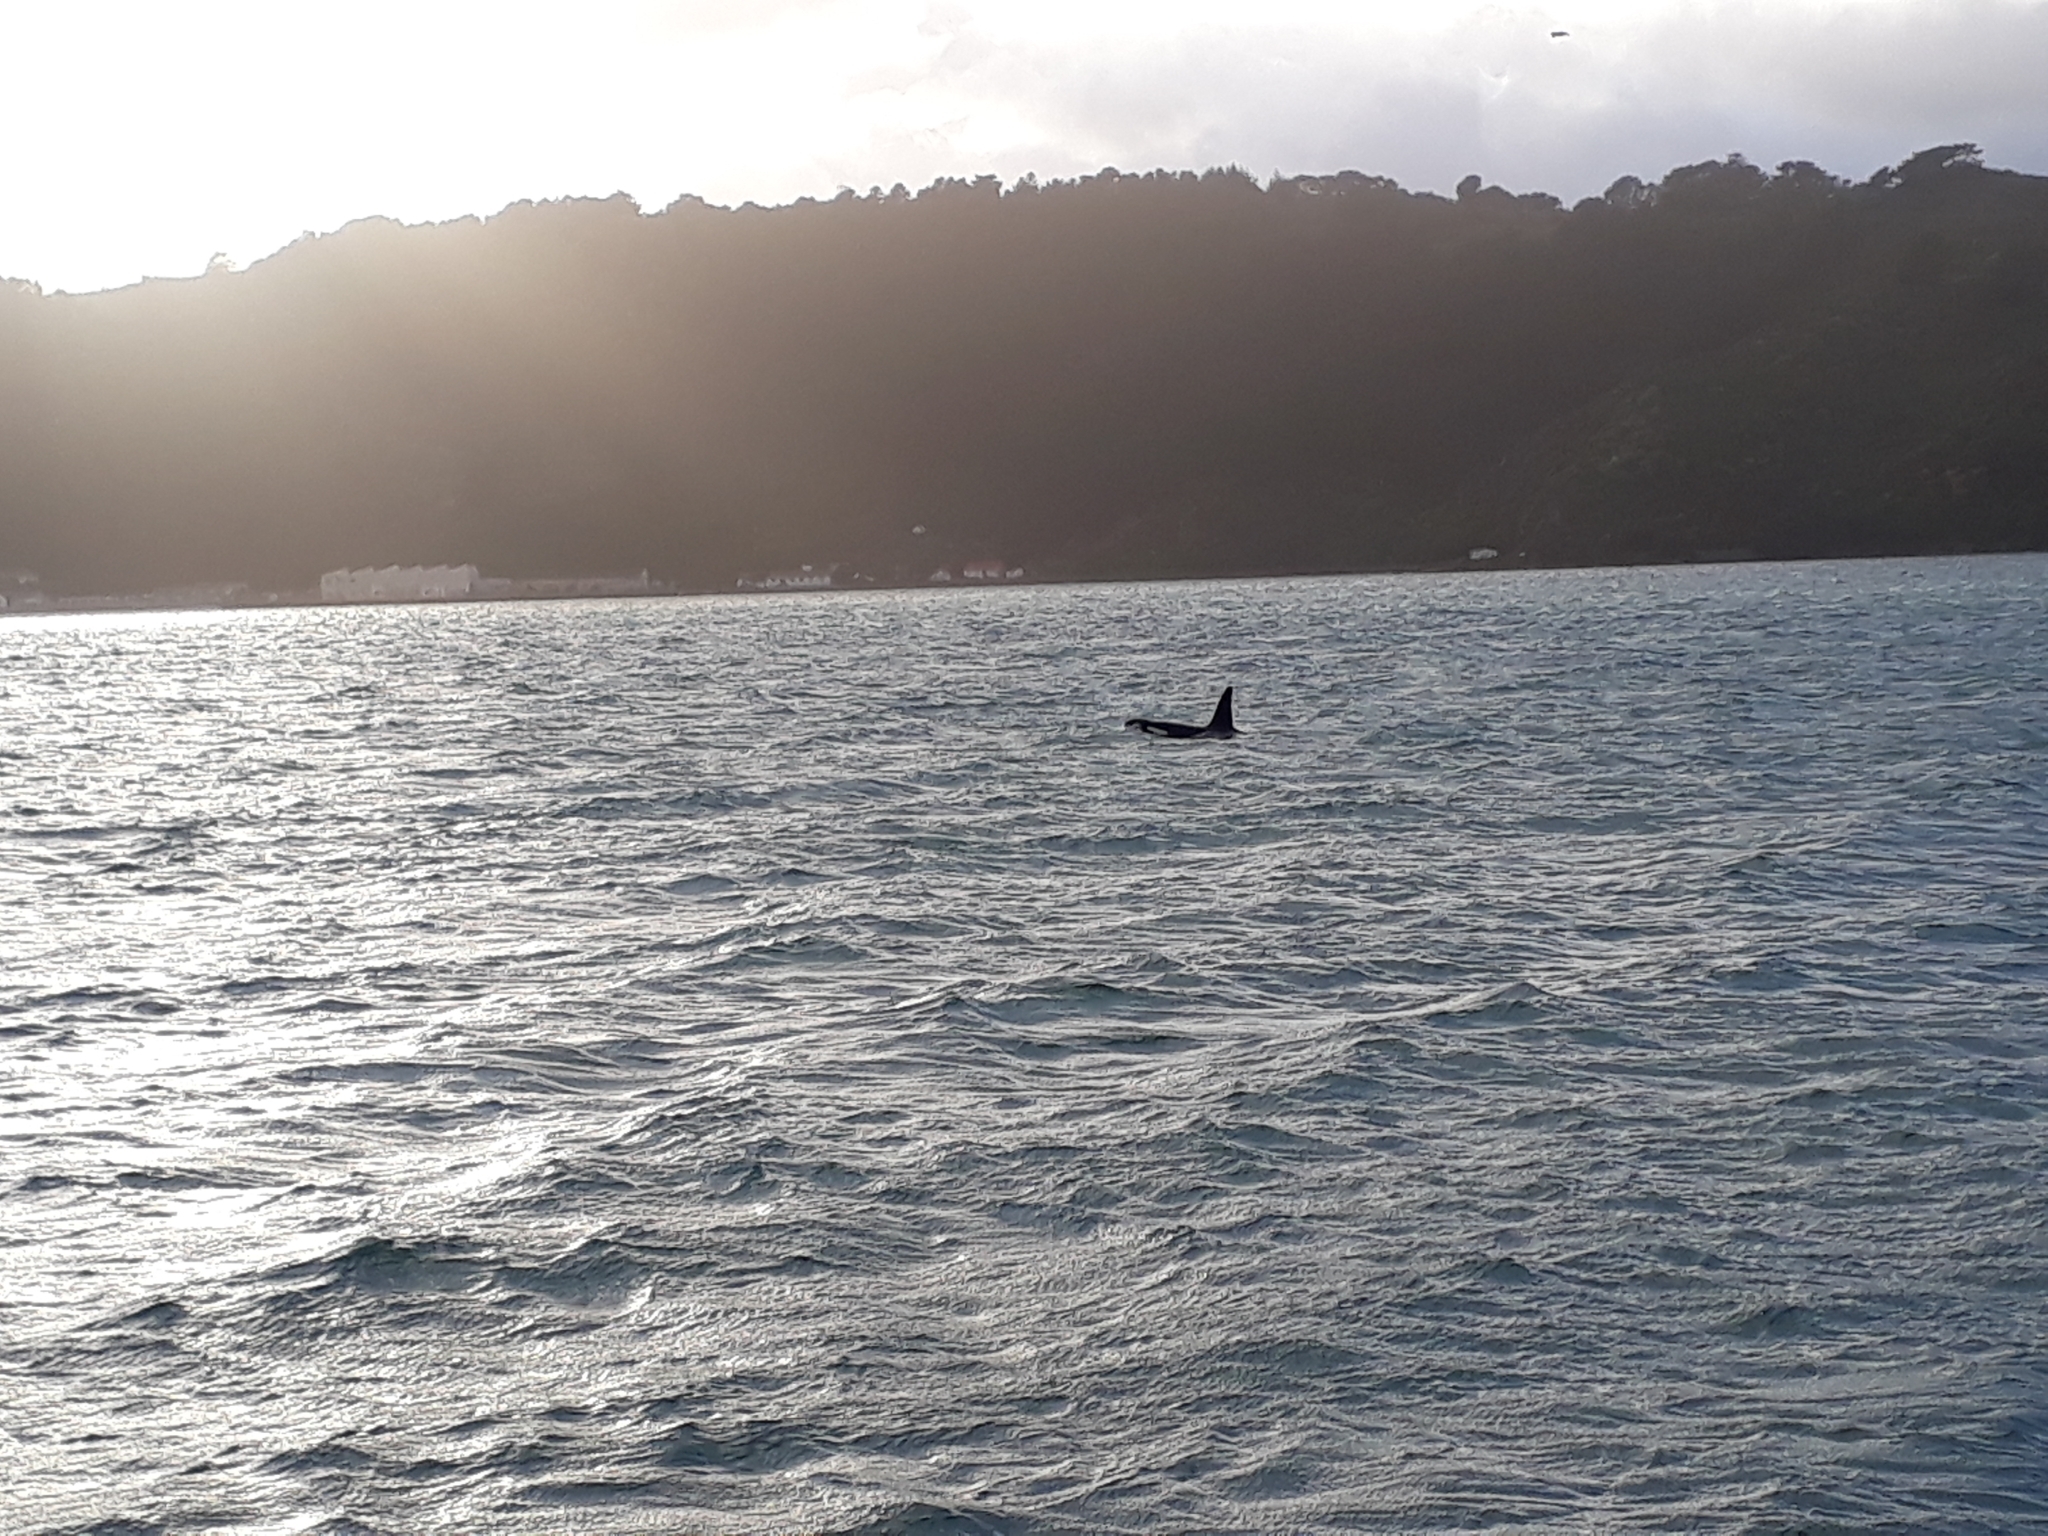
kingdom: Animalia
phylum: Chordata
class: Mammalia
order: Cetacea
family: Delphinidae
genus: Orcinus
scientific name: Orcinus orca
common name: Killer whale
